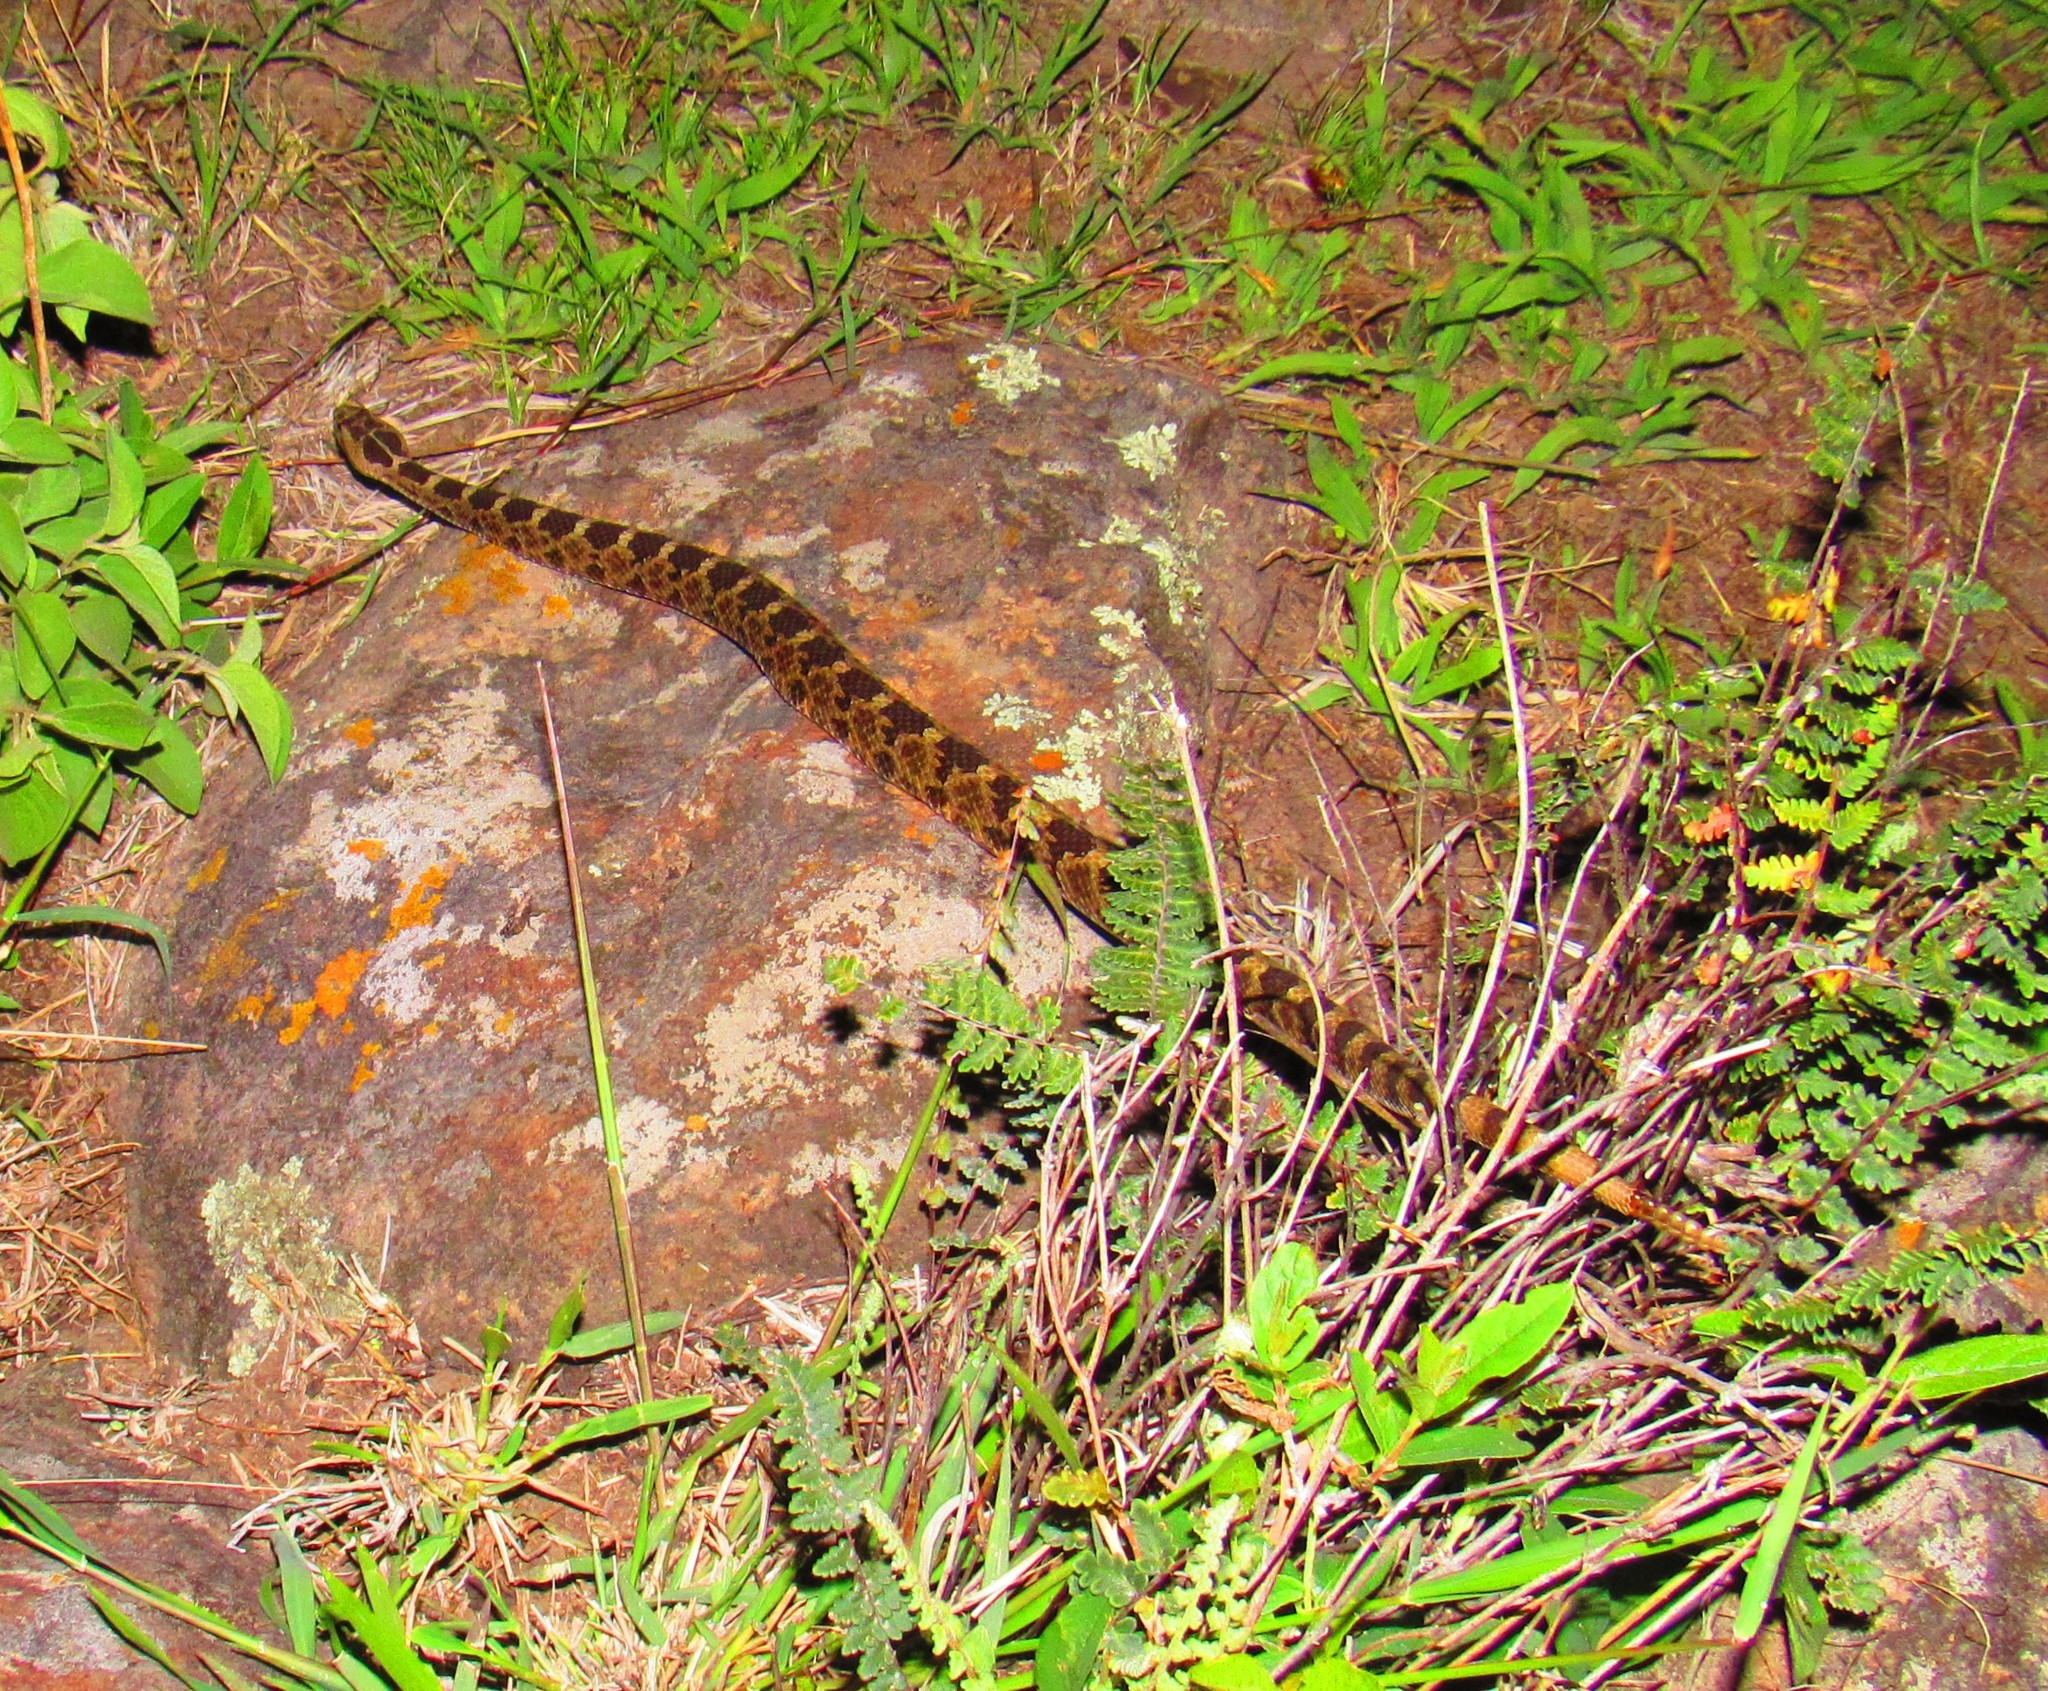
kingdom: Animalia
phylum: Chordata
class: Squamata
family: Viperidae
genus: Crotalus
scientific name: Crotalus aquilus
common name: Queretaran dusky rattlesnake
